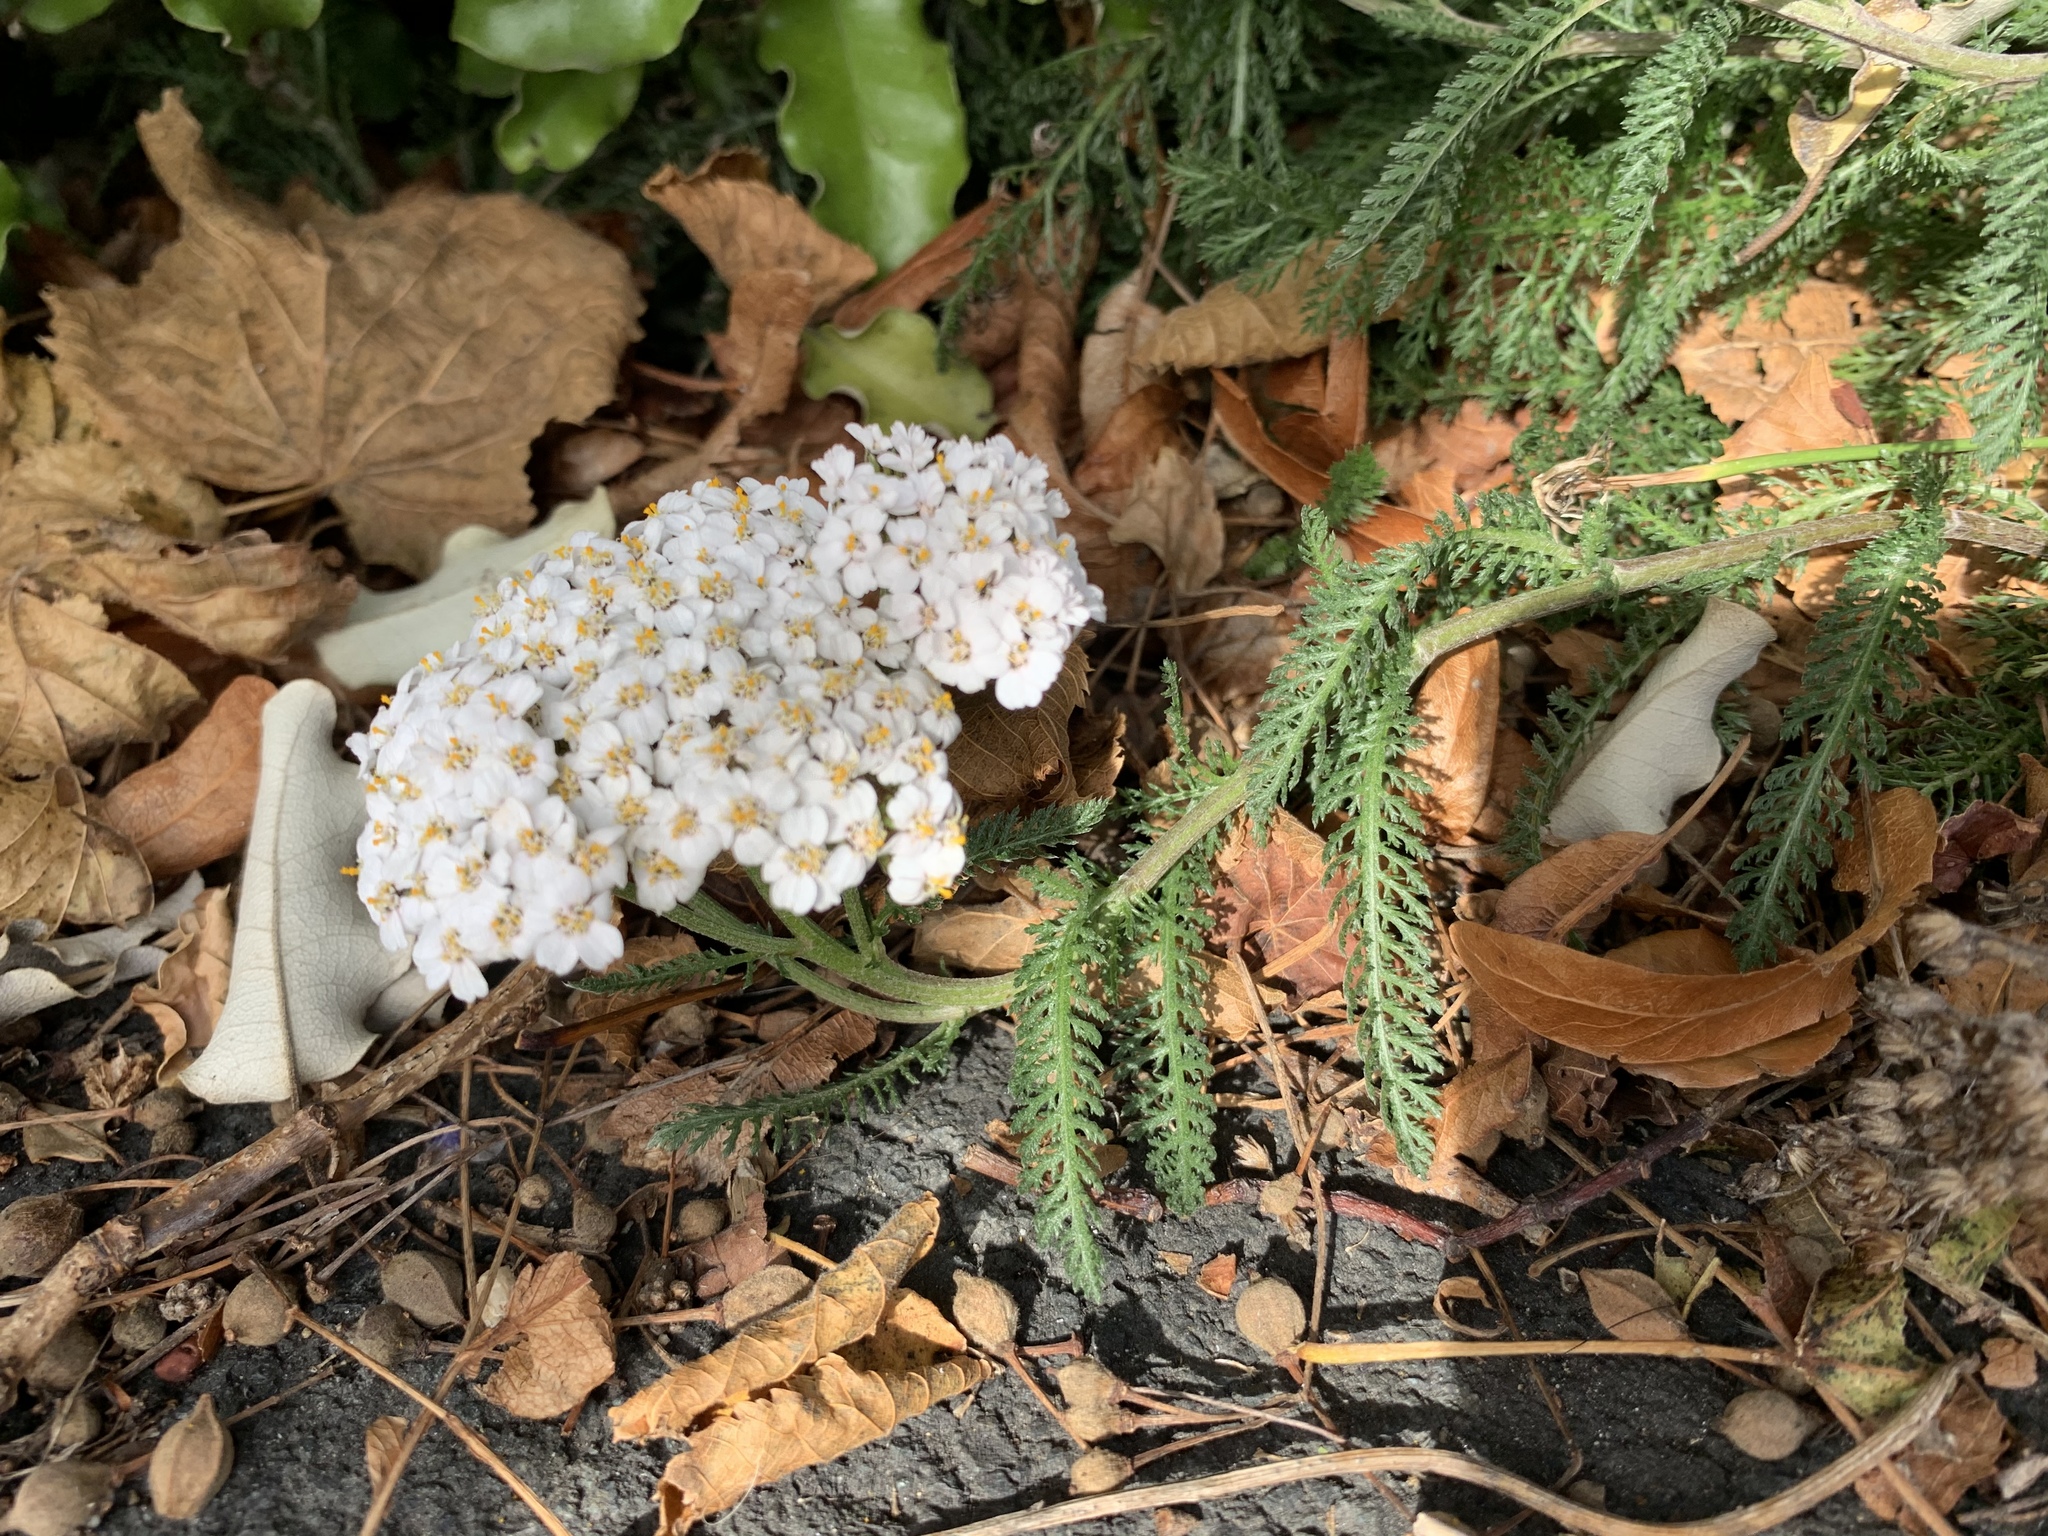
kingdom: Plantae
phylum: Tracheophyta
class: Magnoliopsida
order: Asterales
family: Asteraceae
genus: Achillea
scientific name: Achillea millefolium
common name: Yarrow
